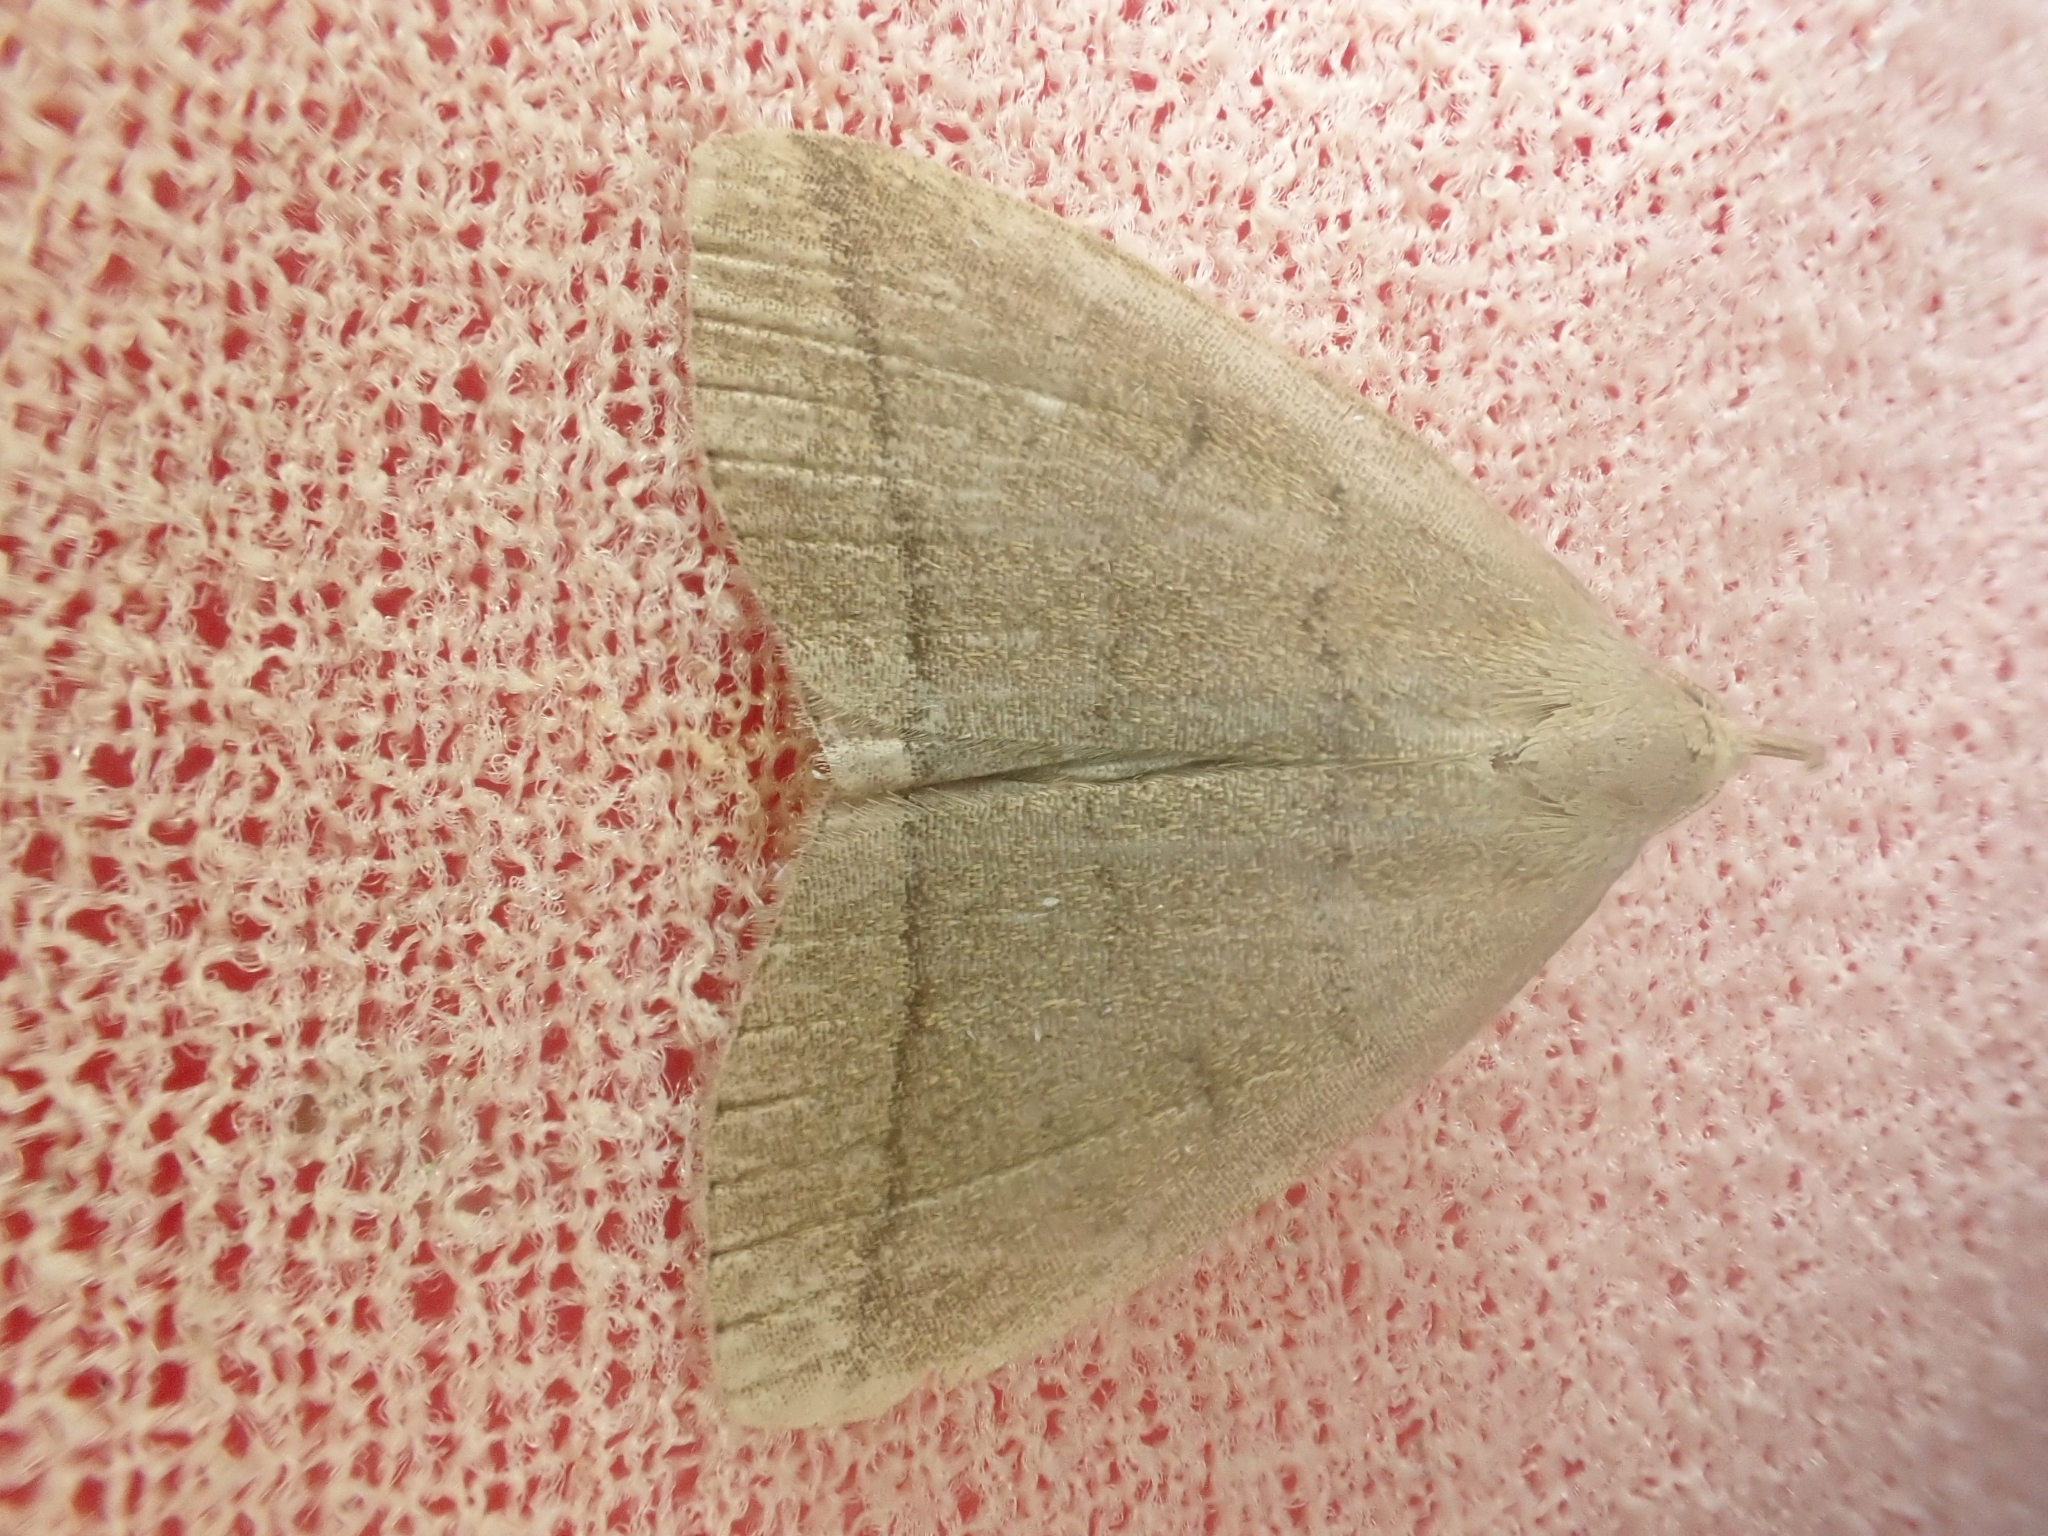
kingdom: Animalia
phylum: Arthropoda
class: Insecta
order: Lepidoptera
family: Erebidae
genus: Herminia
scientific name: Herminia tarsipennalis
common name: Fan-foot
